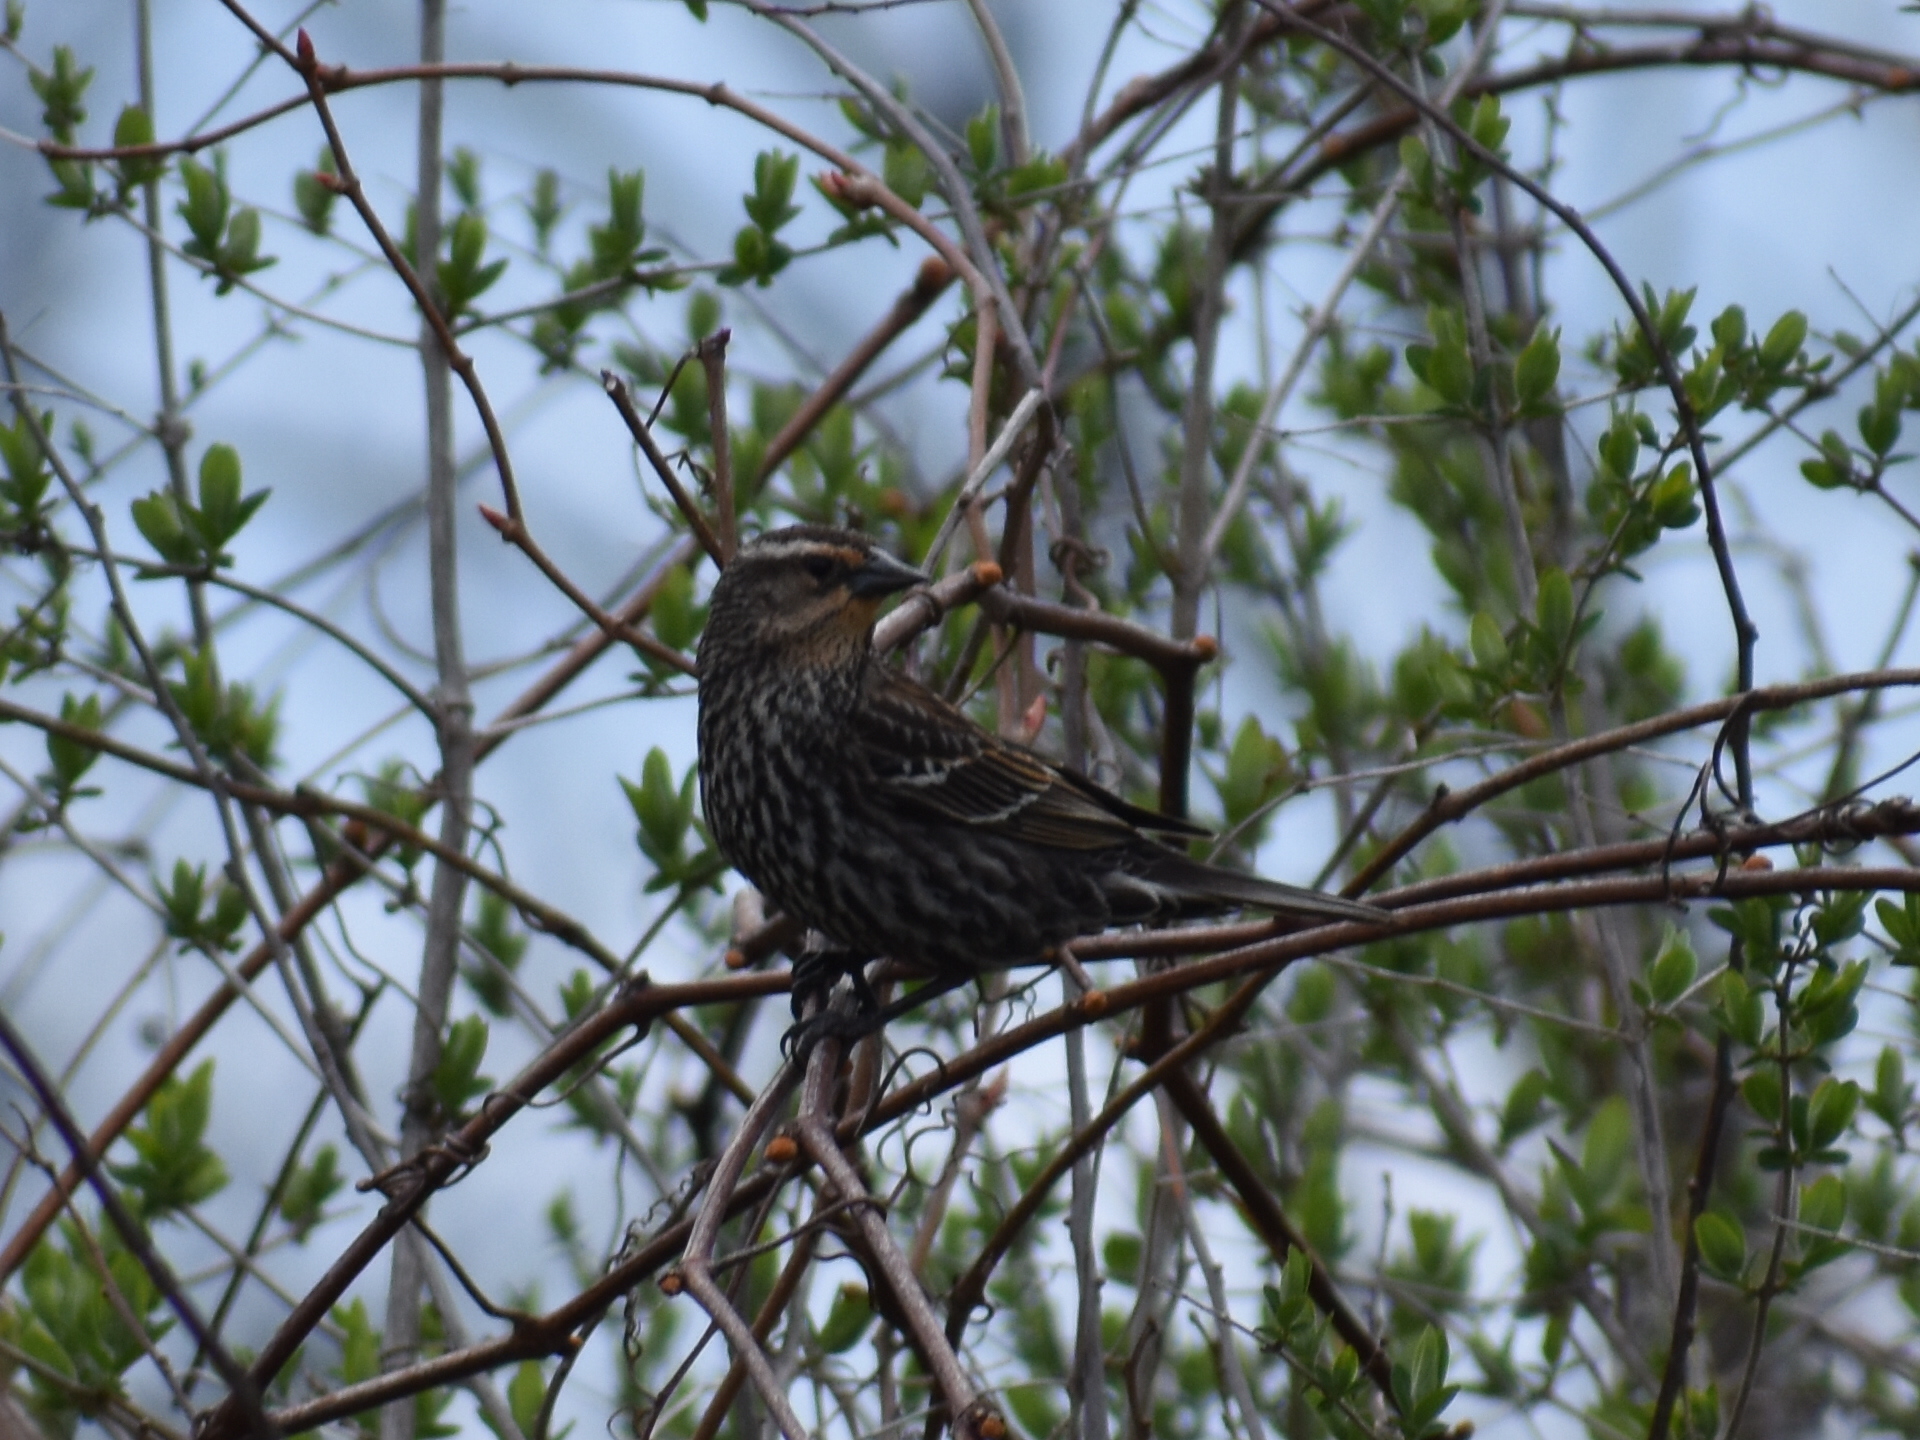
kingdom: Animalia
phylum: Chordata
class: Aves
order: Passeriformes
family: Icteridae
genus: Agelaius
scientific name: Agelaius phoeniceus
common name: Red-winged blackbird
